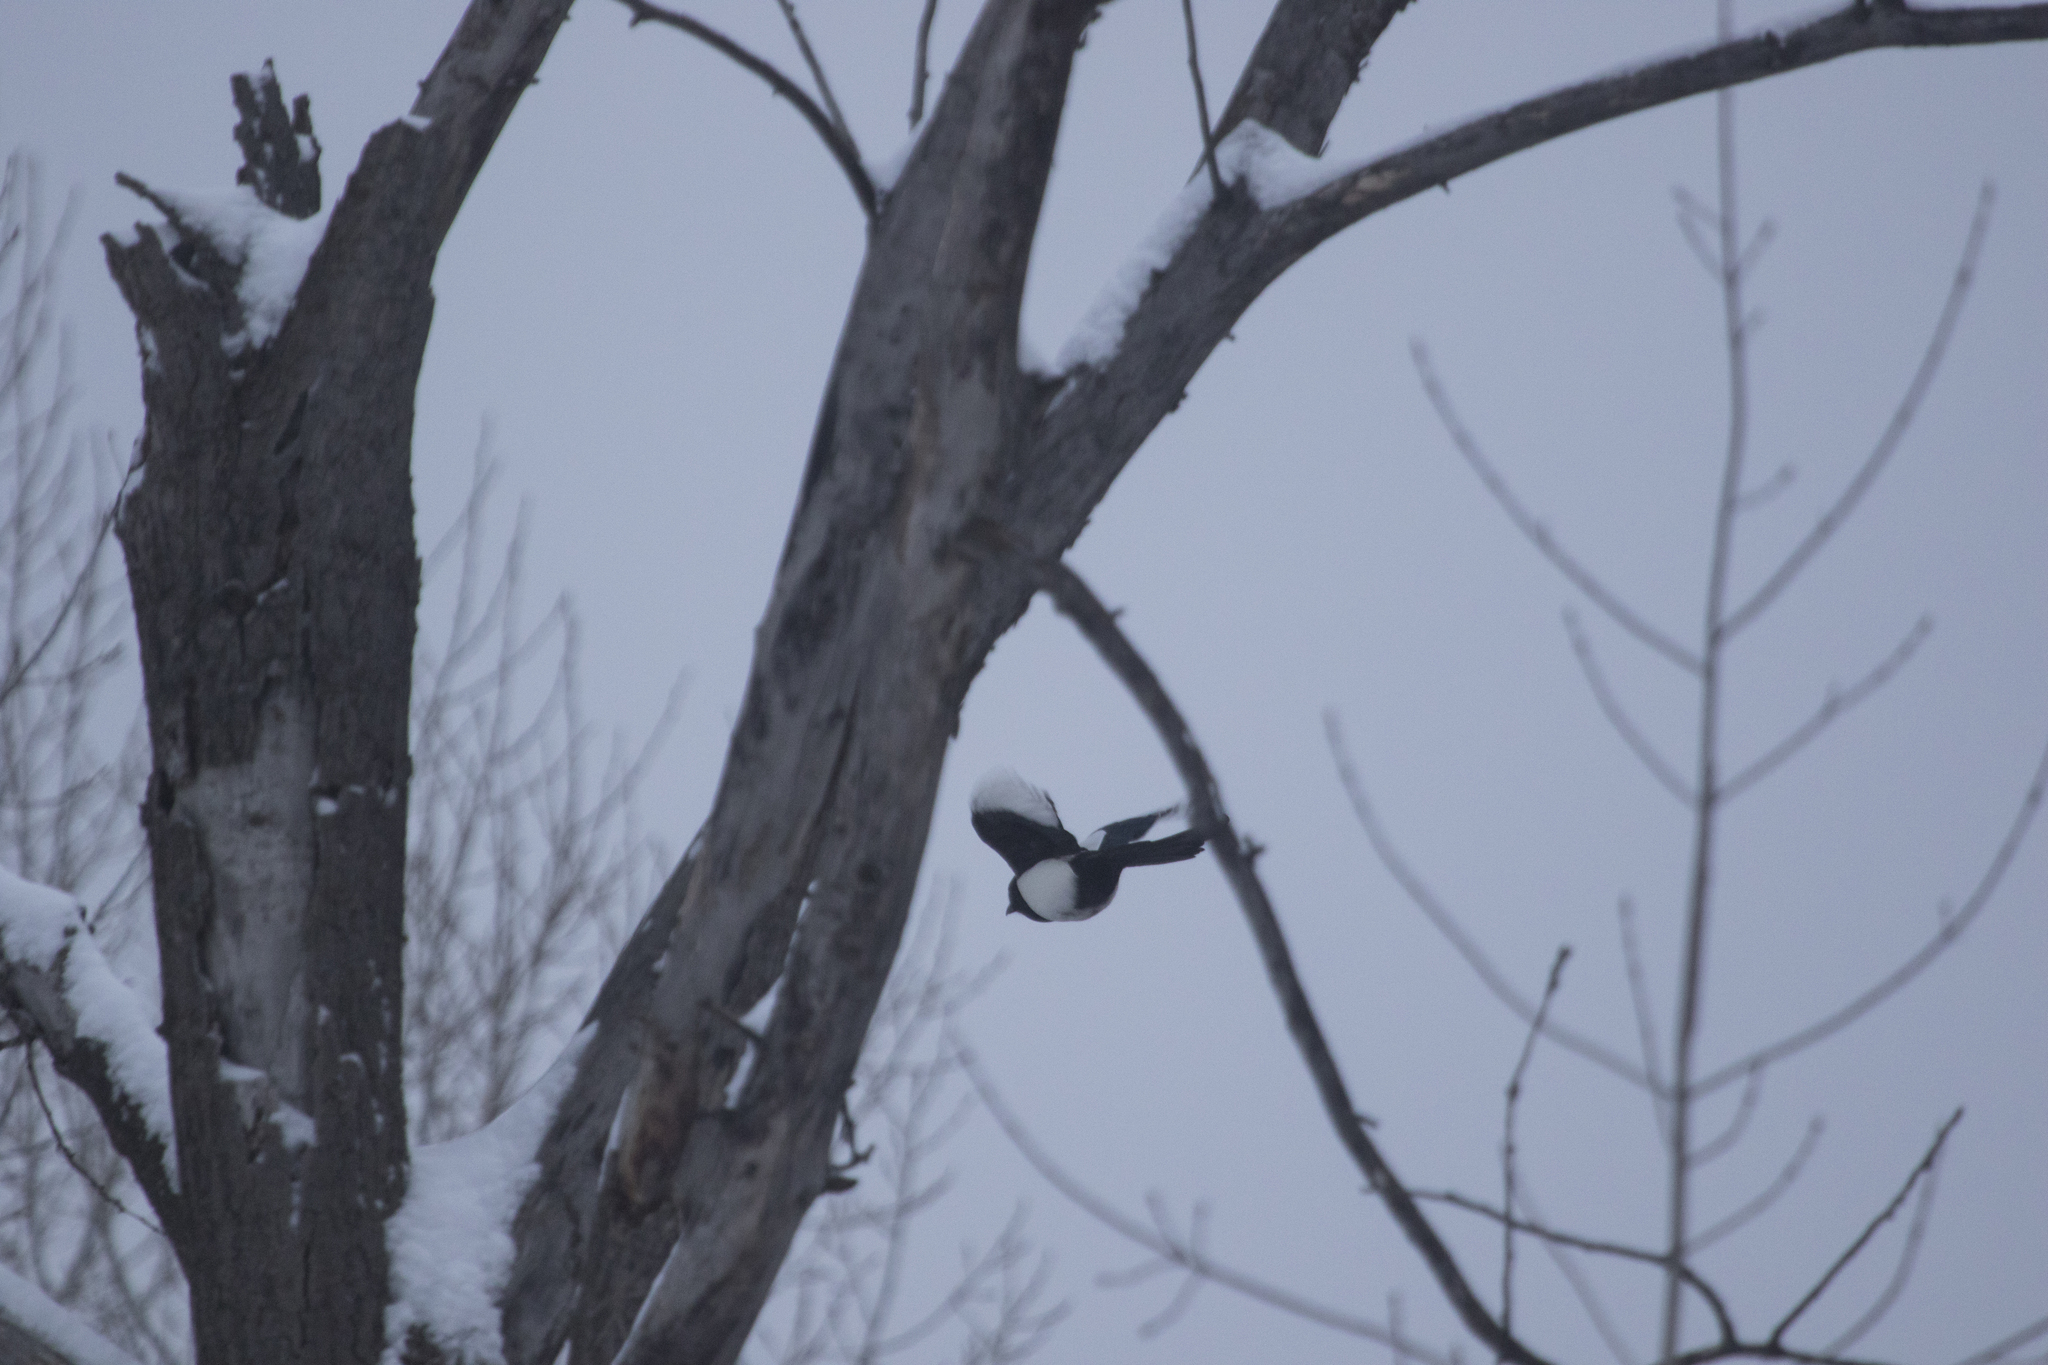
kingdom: Animalia
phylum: Chordata
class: Aves
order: Passeriformes
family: Corvidae
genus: Pica
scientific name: Pica pica
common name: Eurasian magpie
